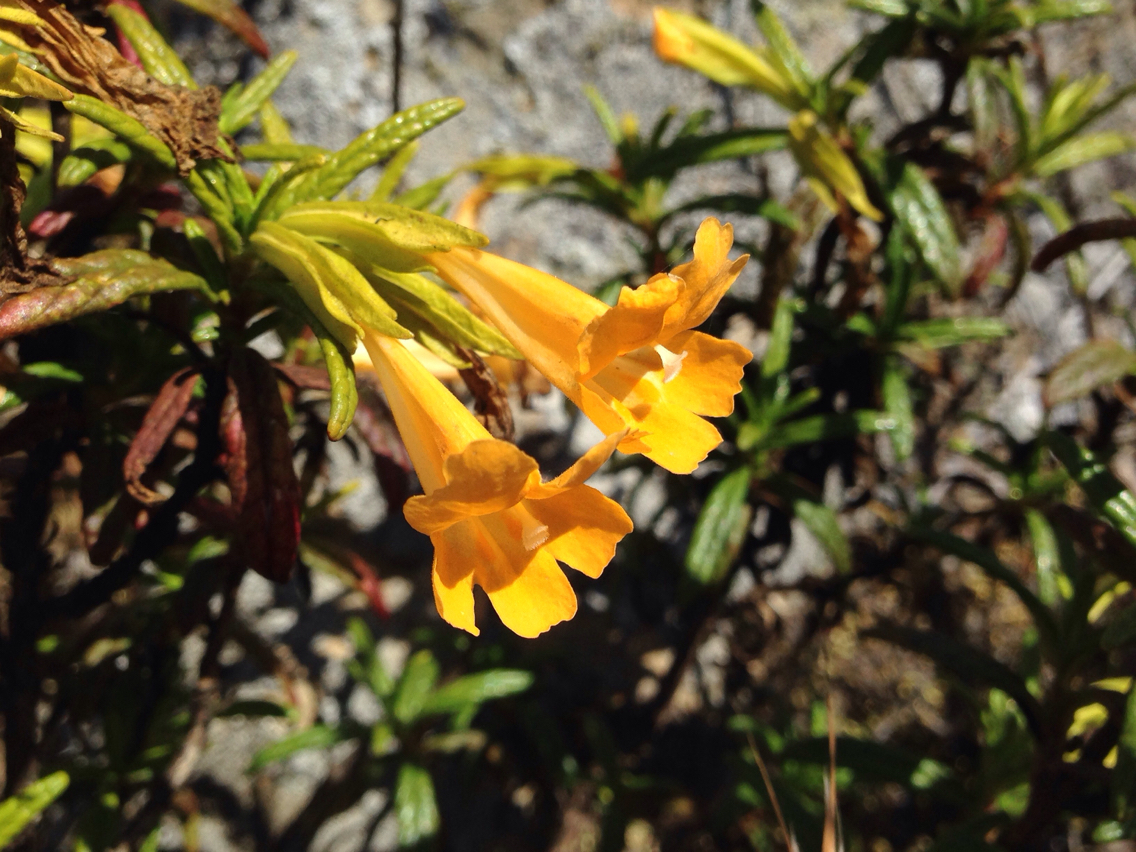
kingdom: Plantae
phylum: Tracheophyta
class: Magnoliopsida
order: Lamiales
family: Phrymaceae
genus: Diplacus
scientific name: Diplacus aurantiacus
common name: Bush monkey-flower
